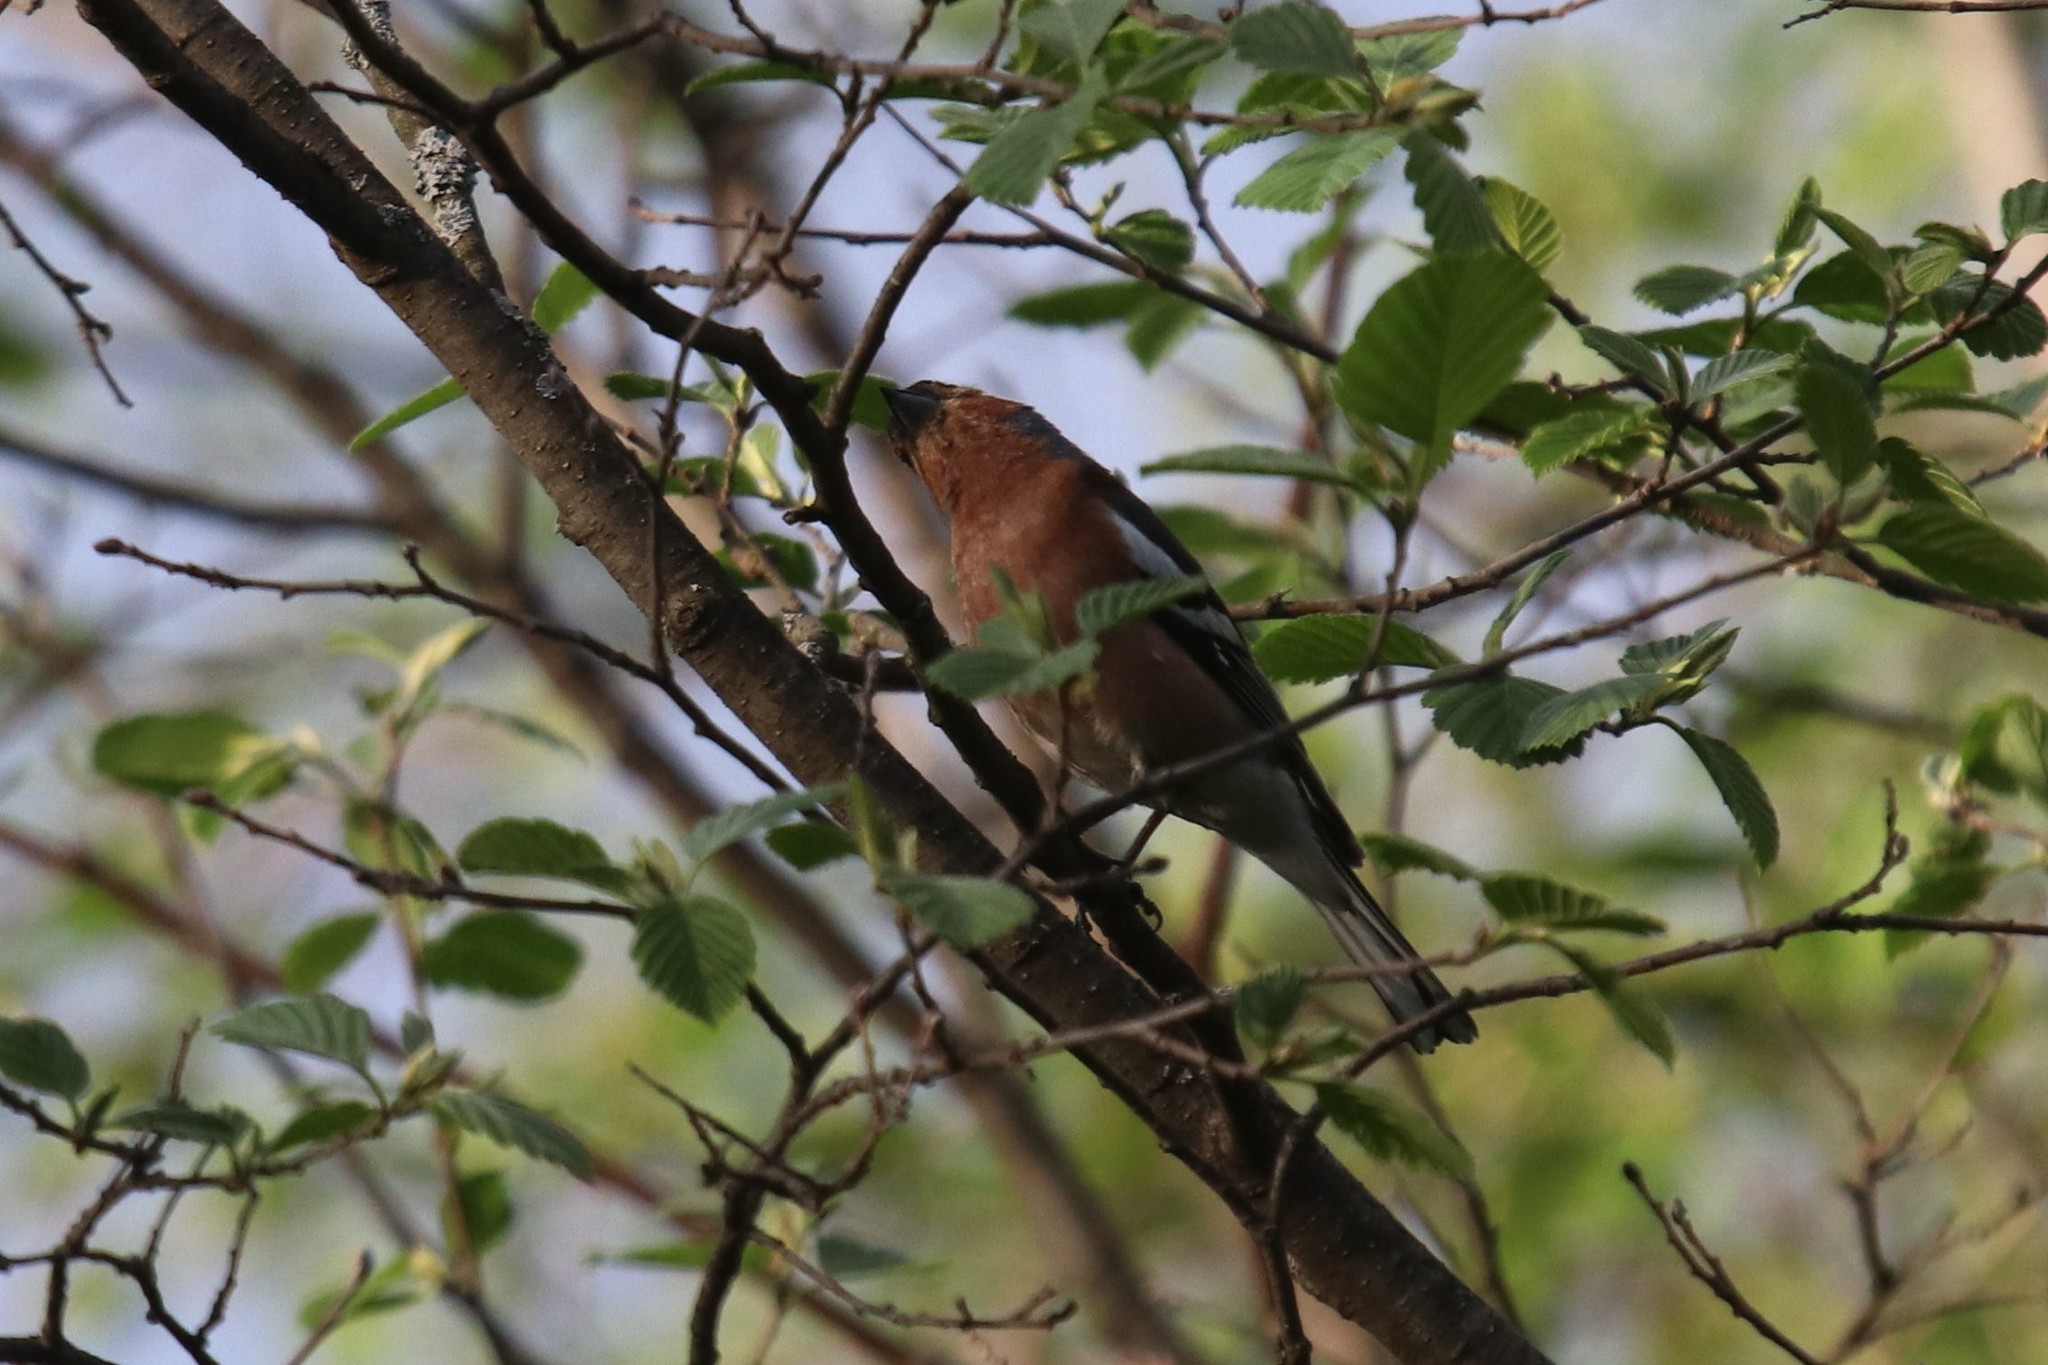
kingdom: Animalia
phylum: Chordata
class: Aves
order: Passeriformes
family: Fringillidae
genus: Fringilla
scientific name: Fringilla coelebs
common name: Common chaffinch
